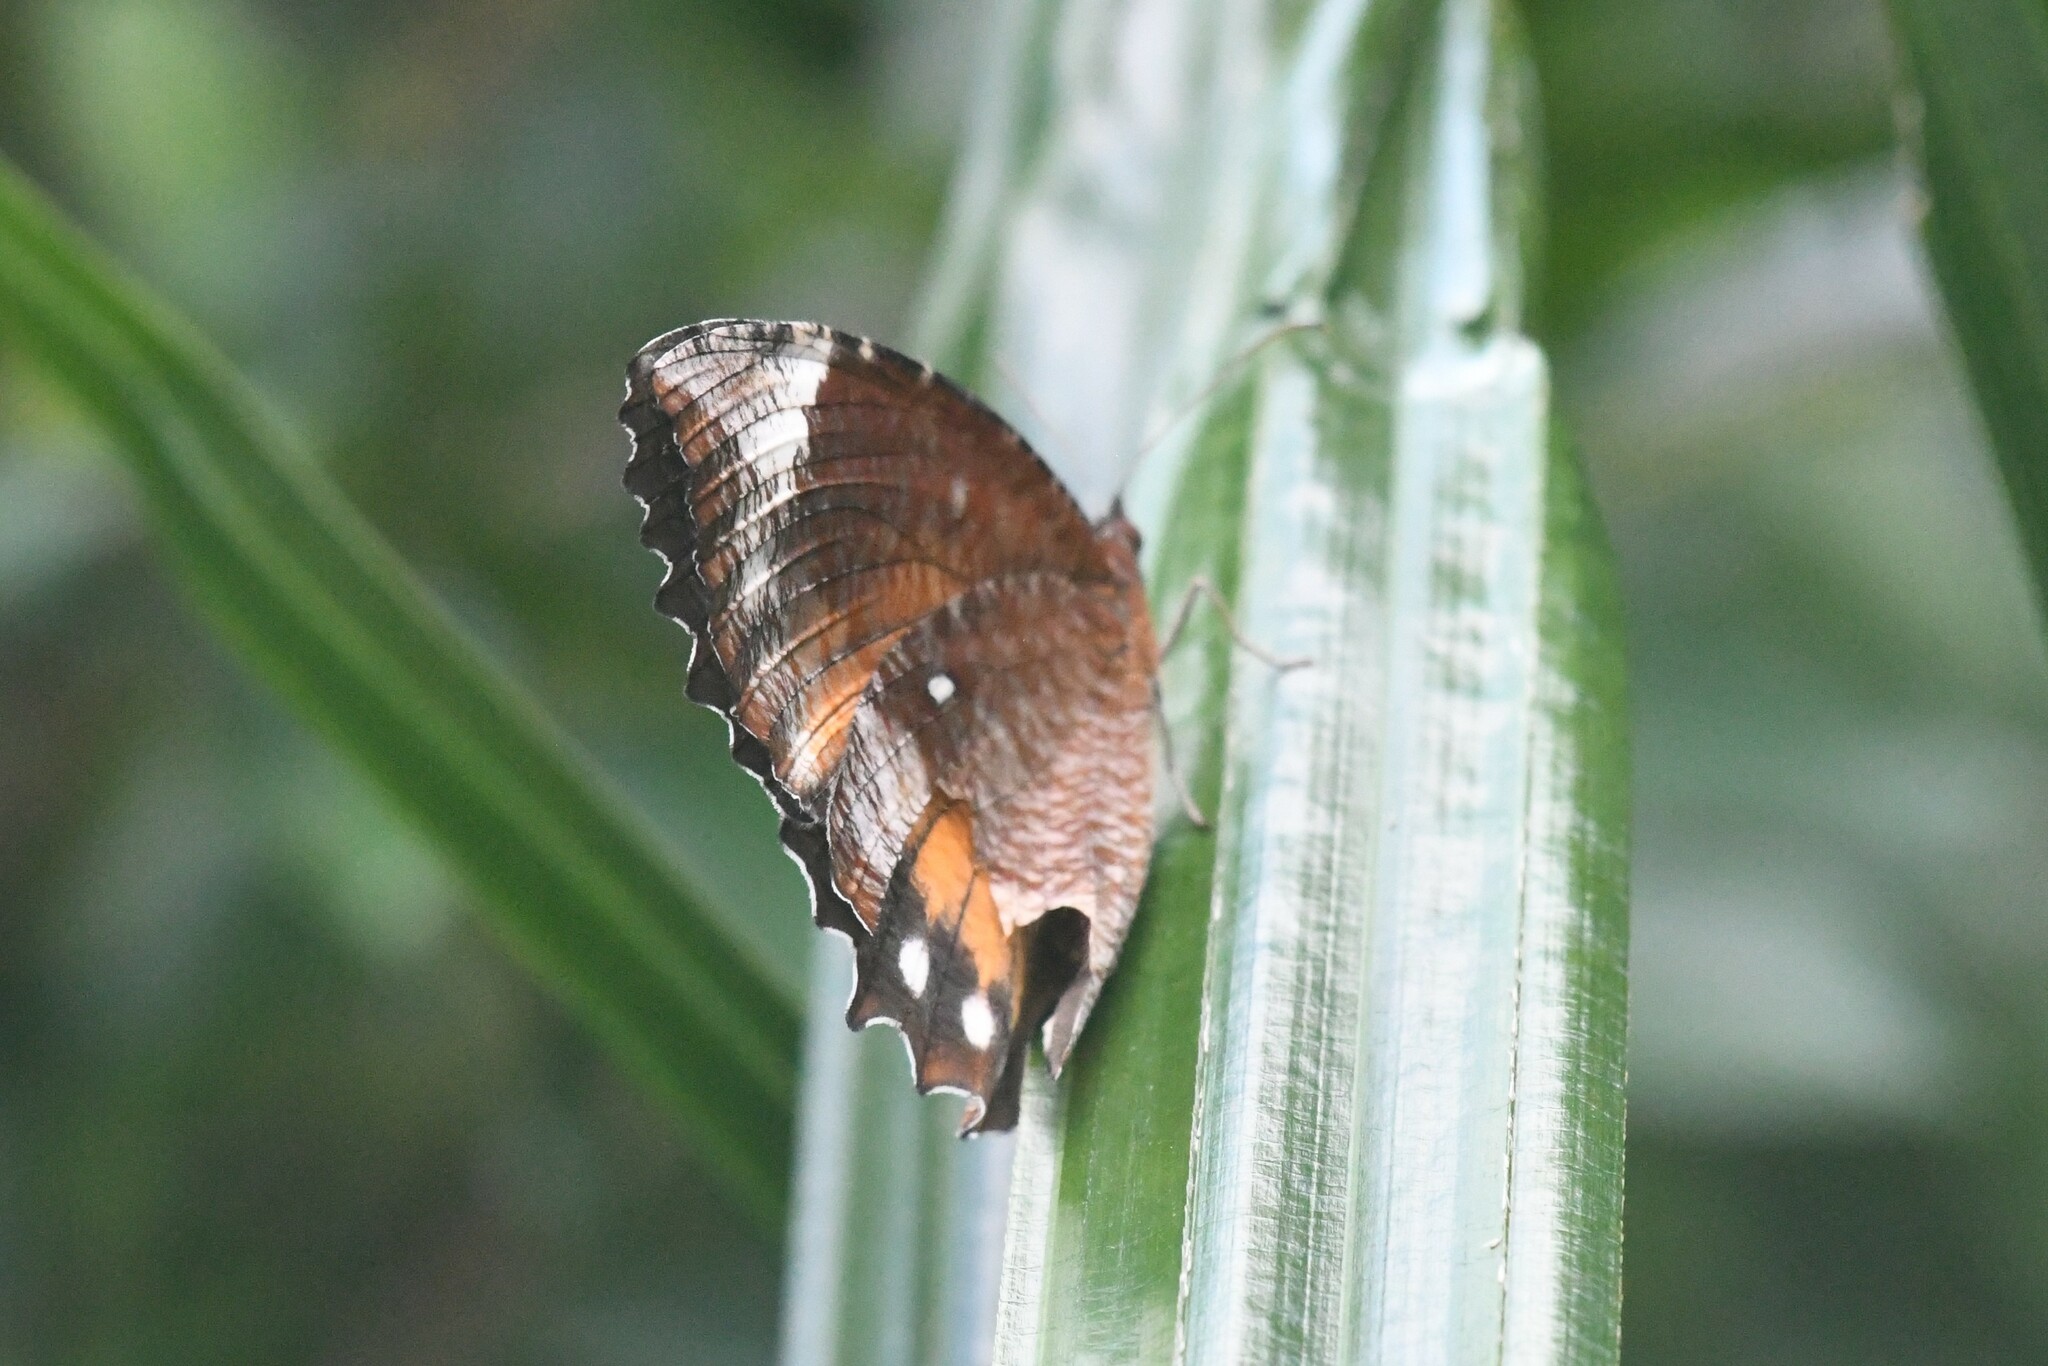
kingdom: Animalia
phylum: Arthropoda
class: Insecta
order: Lepidoptera
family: Nymphalidae
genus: Elymnias
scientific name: Elymnias hypermnestra
